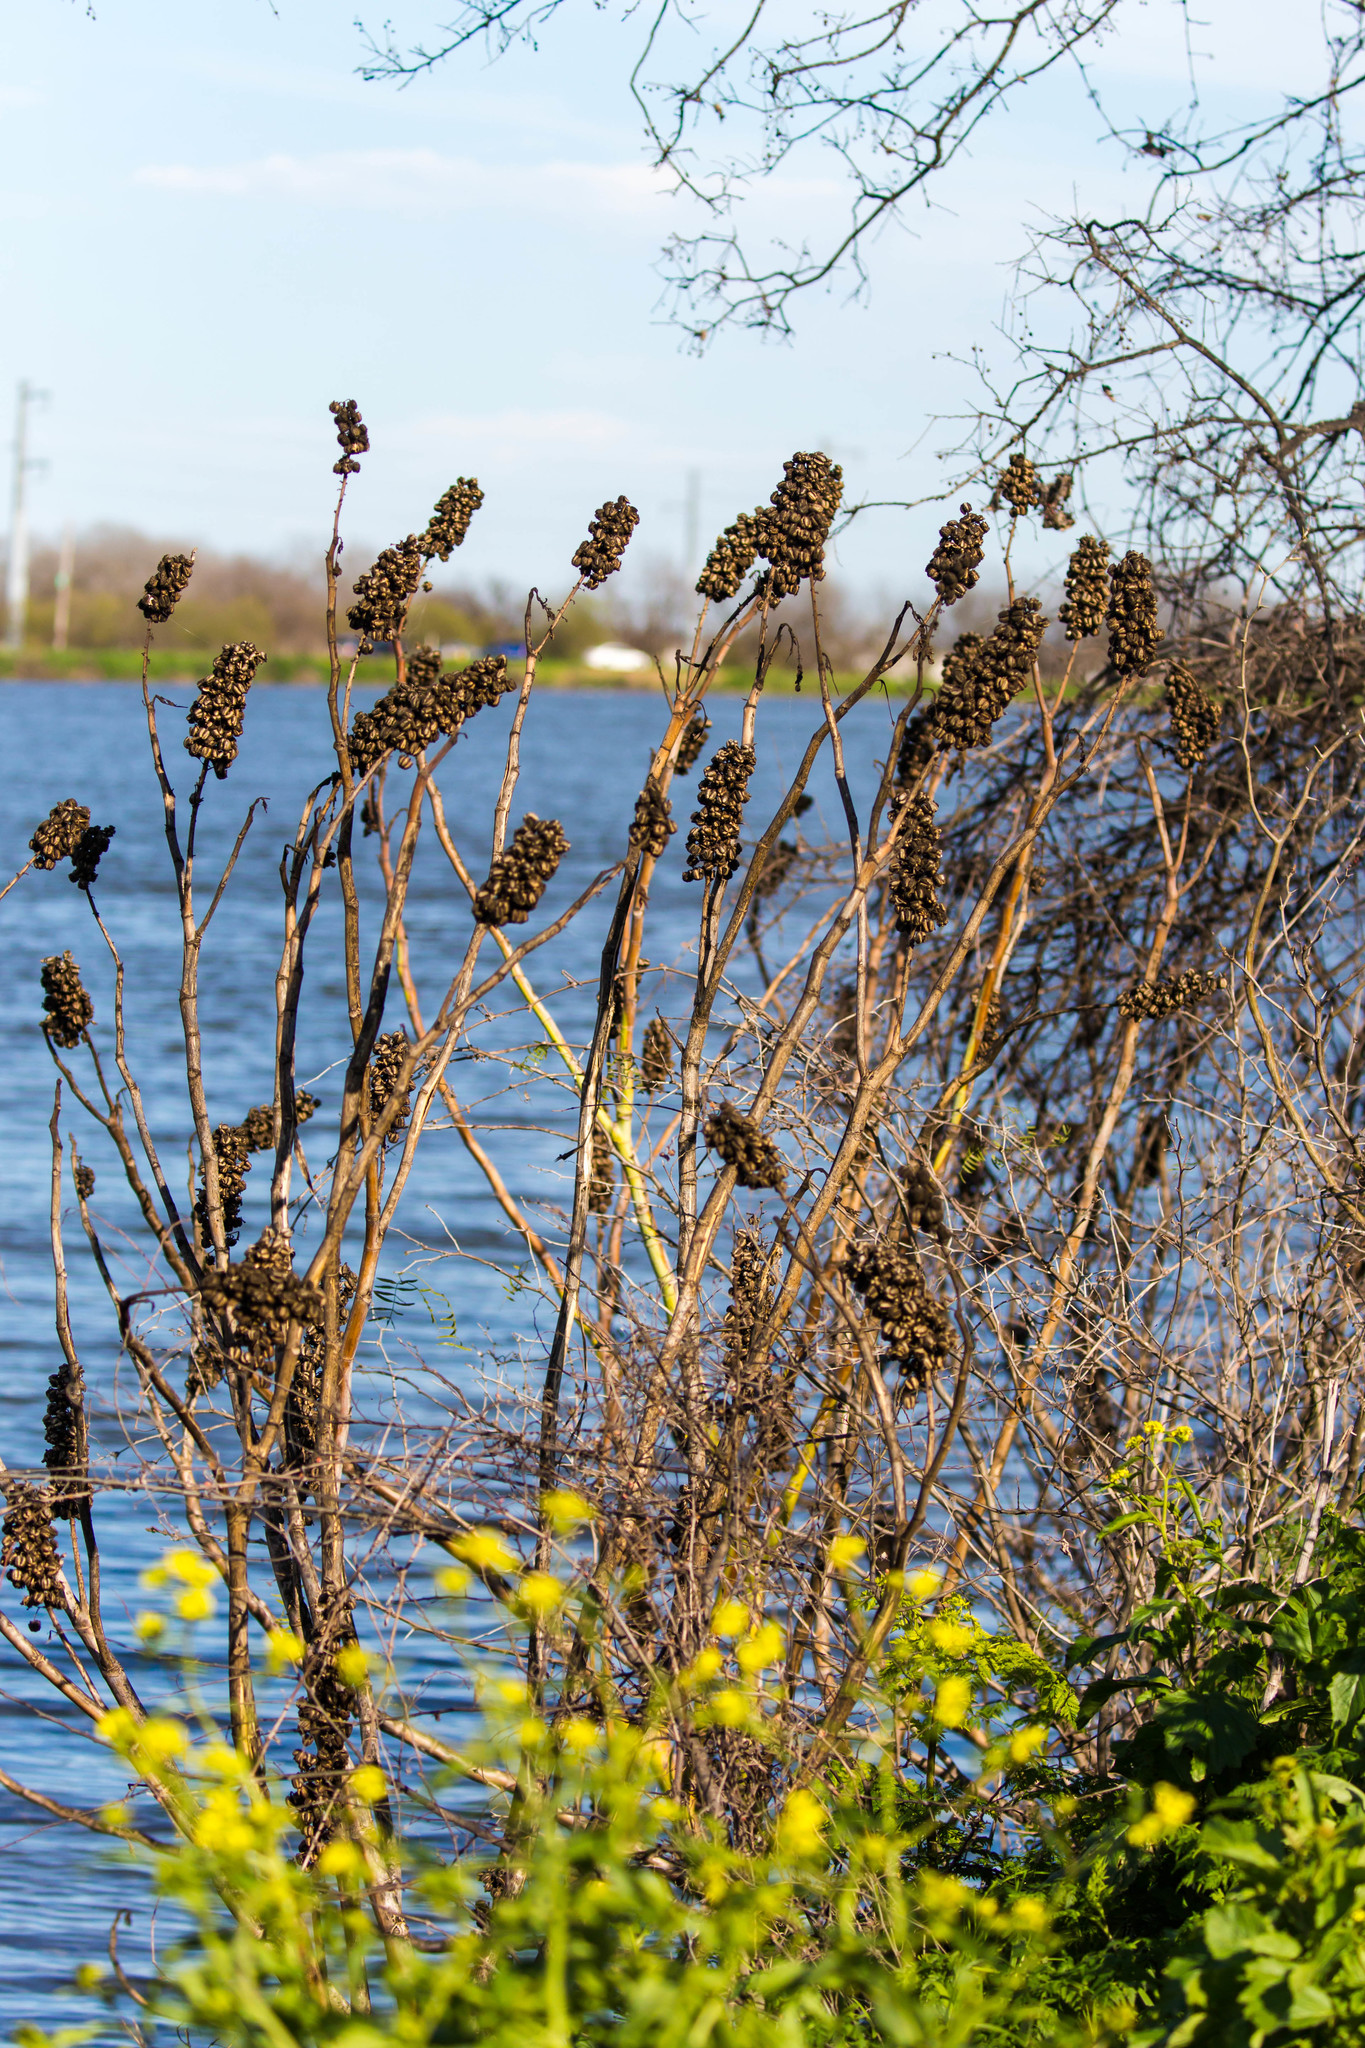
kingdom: Plantae
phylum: Tracheophyta
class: Magnoliopsida
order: Malpighiales
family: Euphorbiaceae
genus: Ricinus
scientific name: Ricinus communis
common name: Castor-oil-plant
